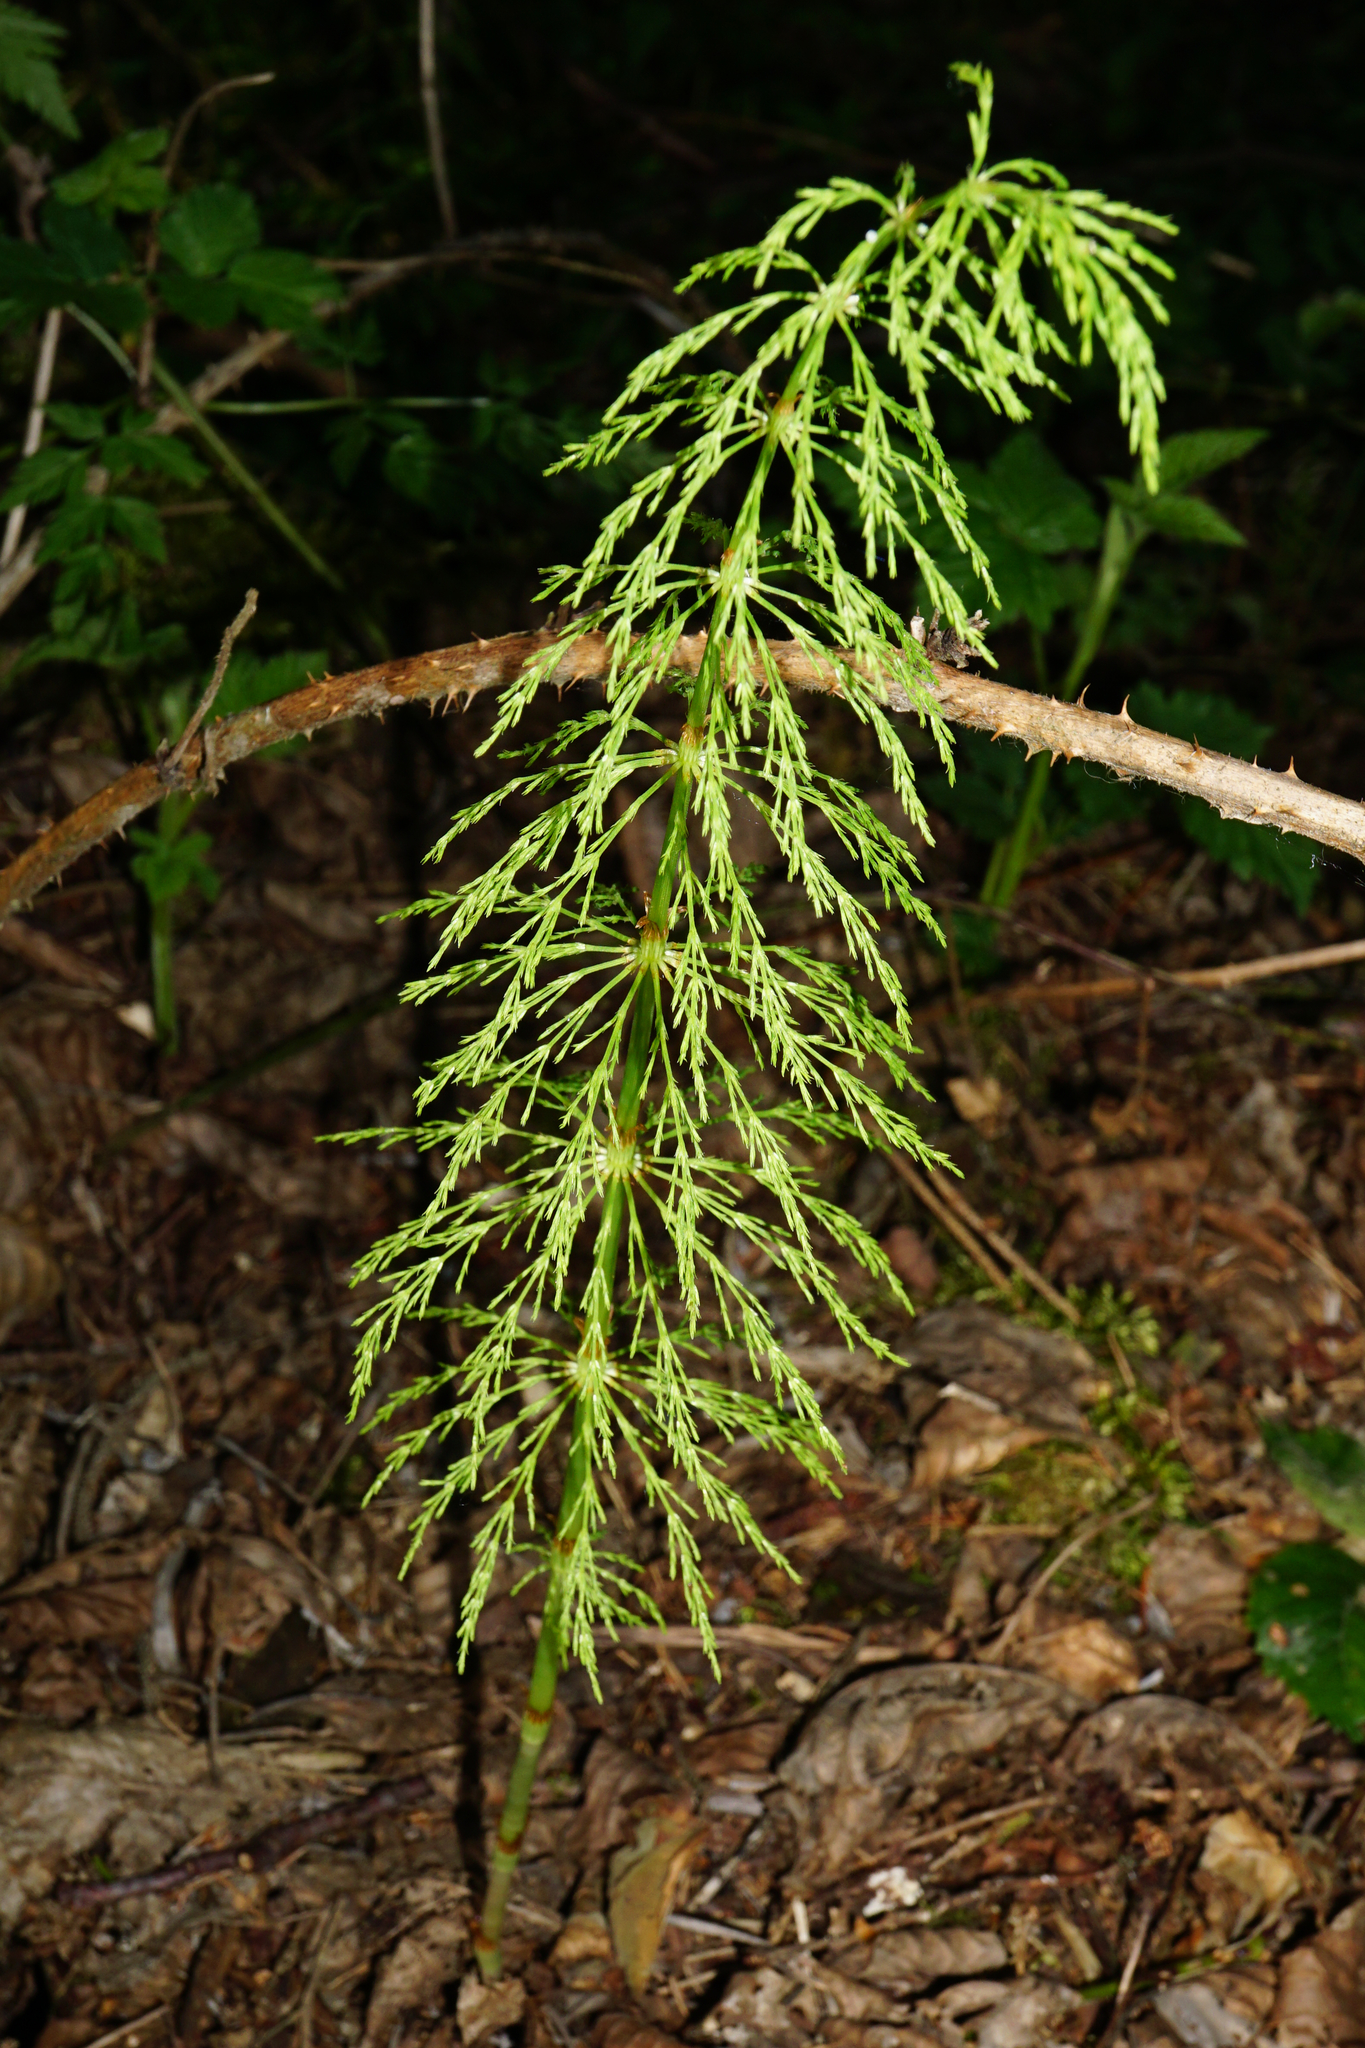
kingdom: Plantae
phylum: Tracheophyta
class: Polypodiopsida
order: Equisetales
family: Equisetaceae
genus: Equisetum
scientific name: Equisetum sylvaticum
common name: Wood horsetail
